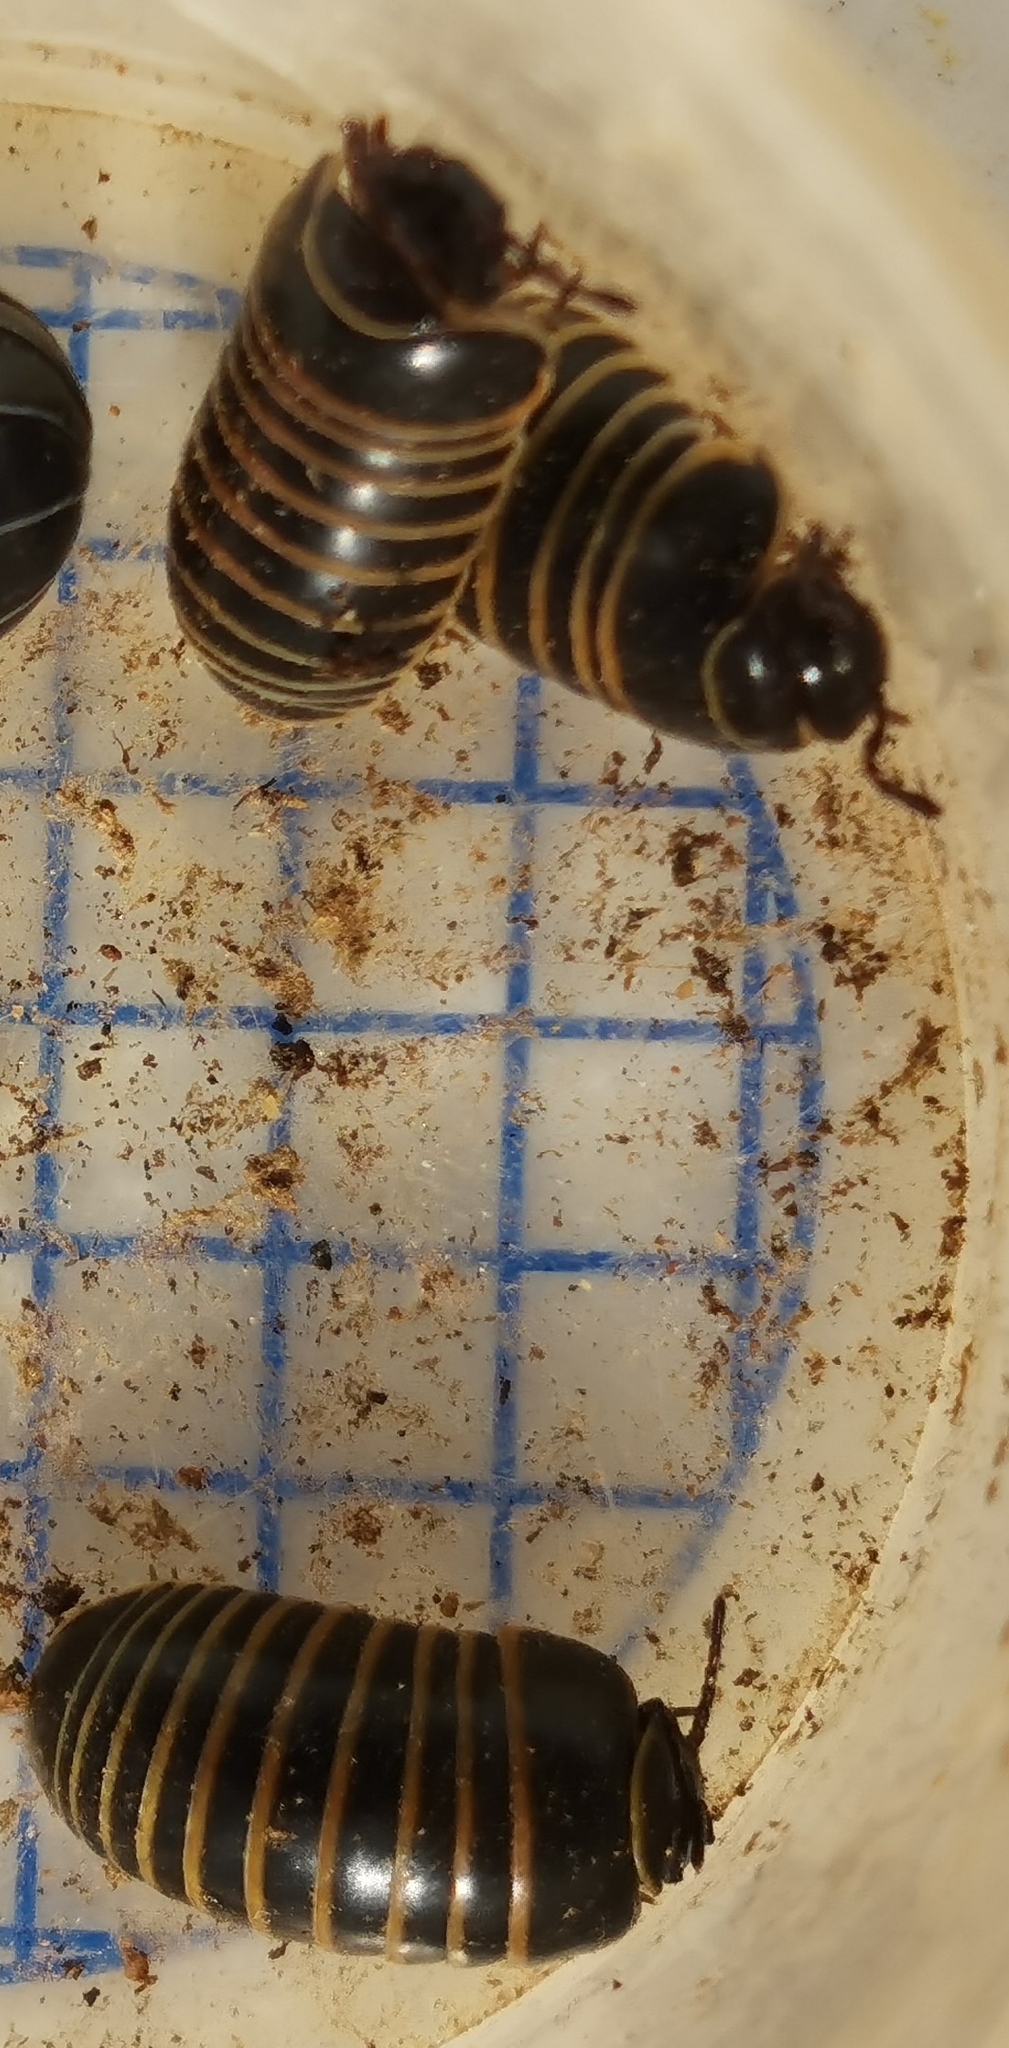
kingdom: Animalia
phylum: Arthropoda
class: Diplopoda
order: Glomerida
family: Glomeridae
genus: Glomeris
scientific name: Glomeris marginata
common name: Bordered pill millipede
